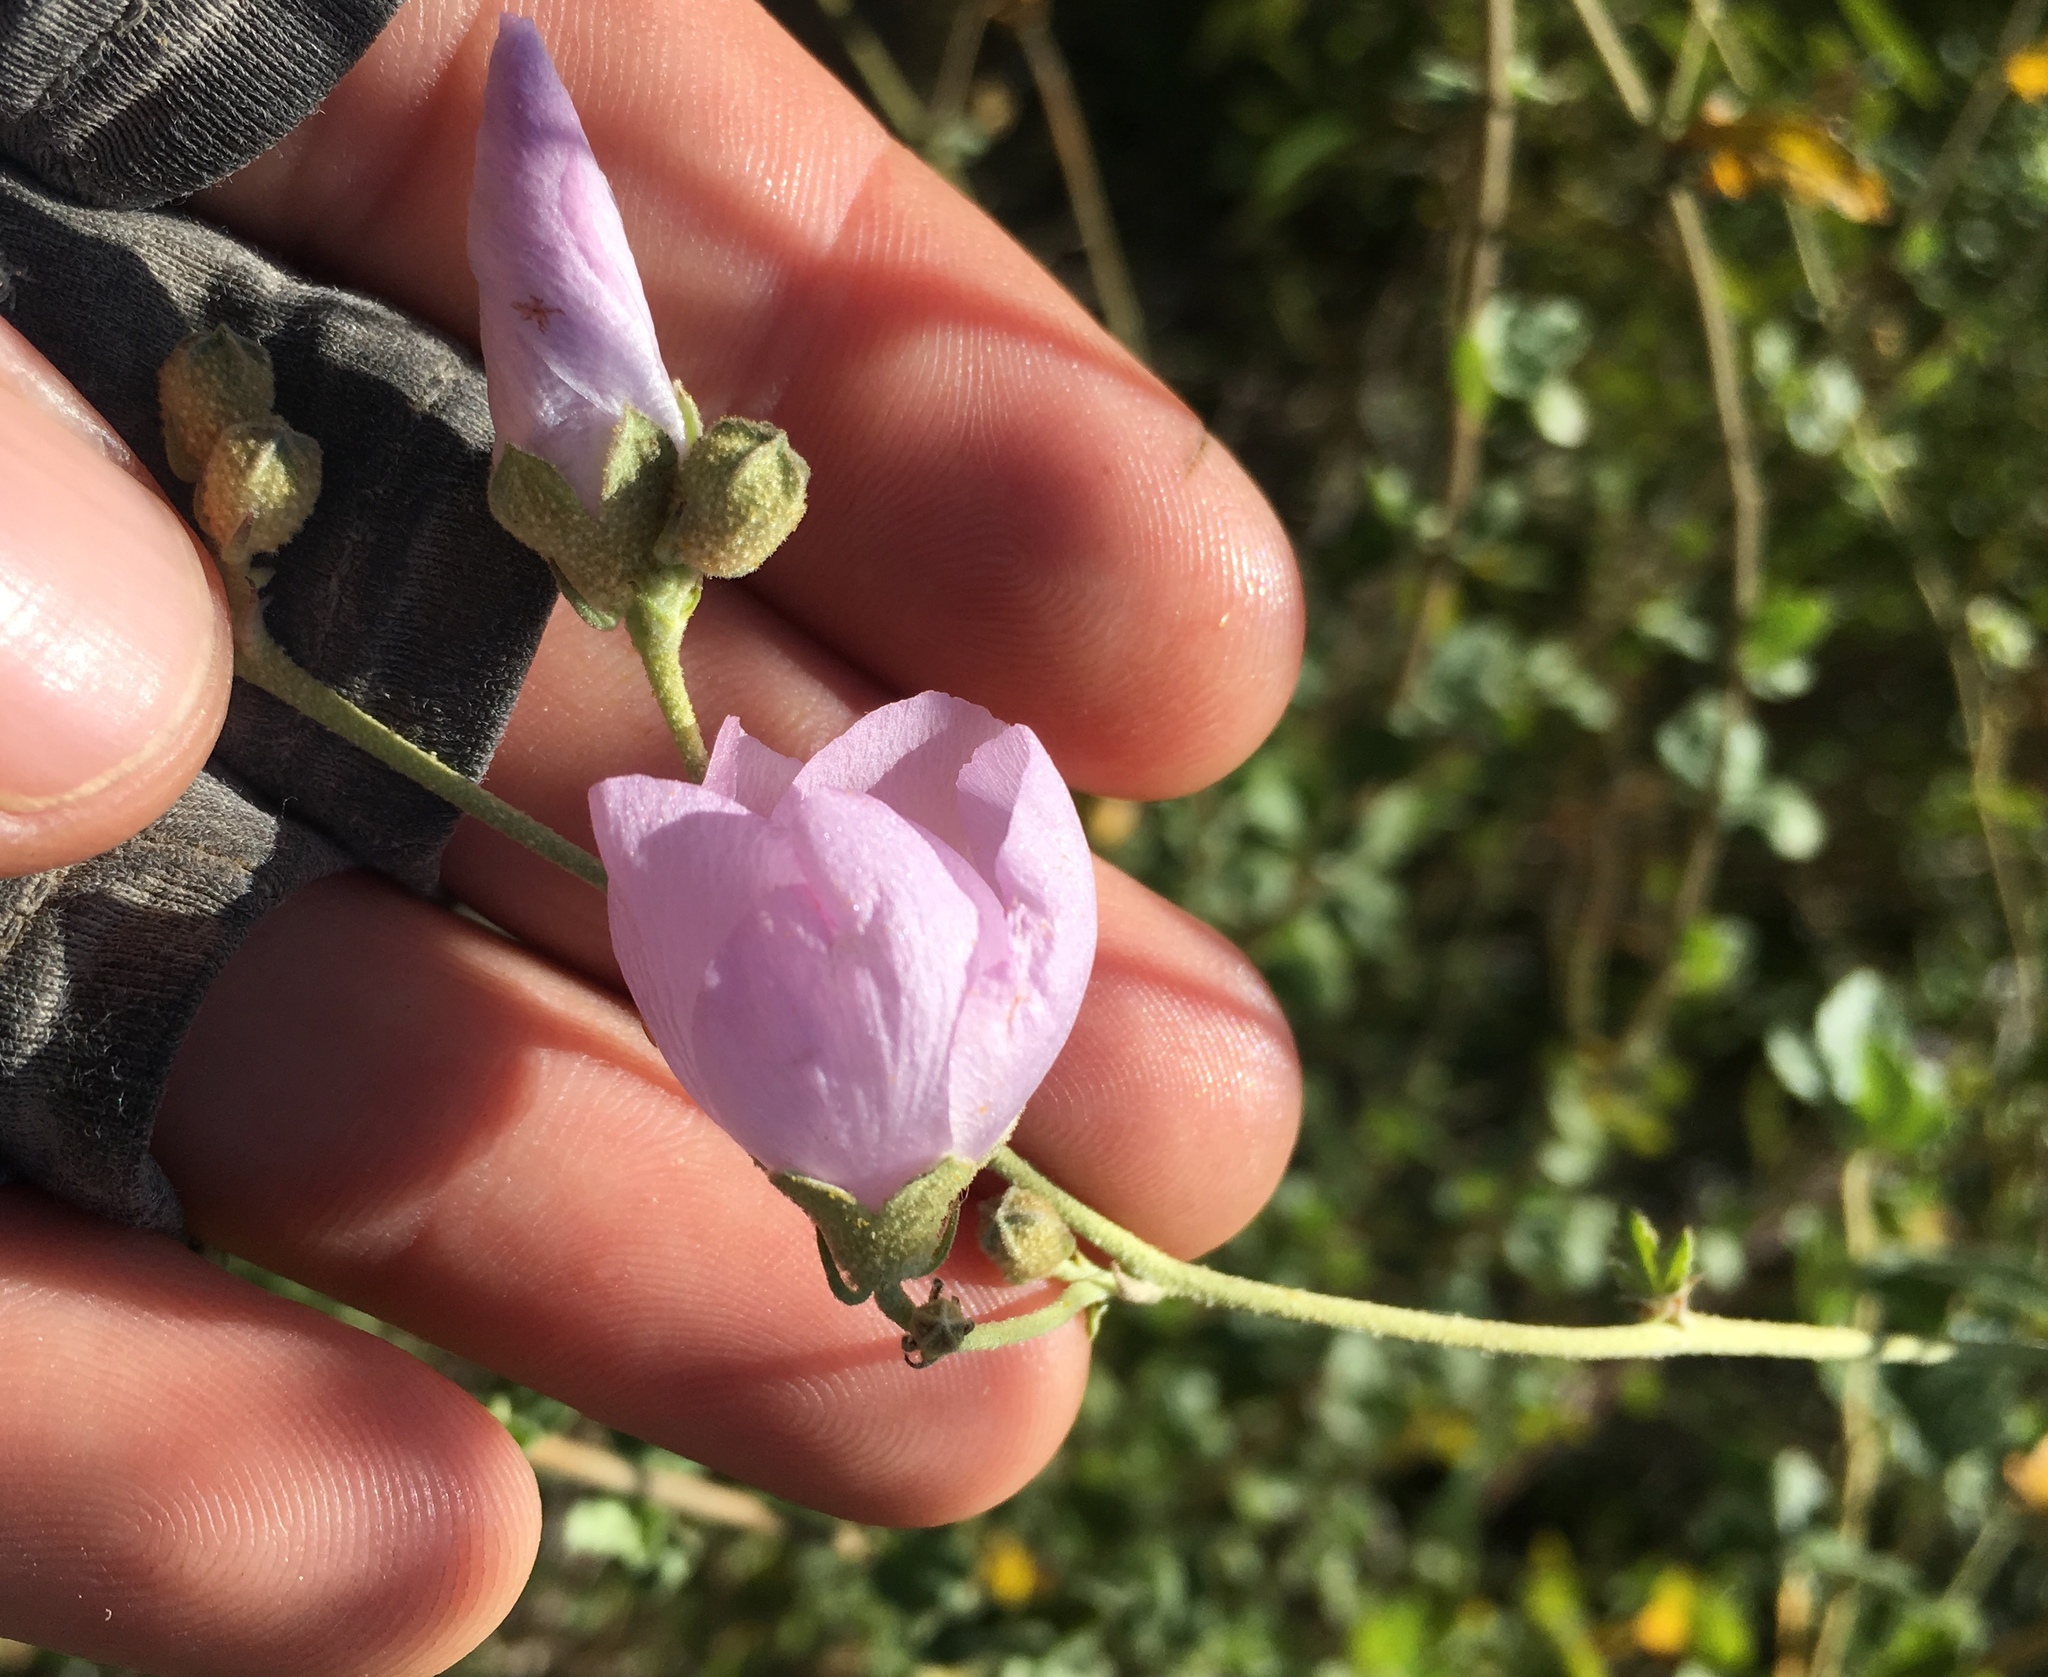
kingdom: Plantae
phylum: Tracheophyta
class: Magnoliopsida
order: Malvales
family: Malvaceae
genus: Malacothamnus
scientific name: Malacothamnus fasciculatus
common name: Sant cruz island bush-mallow
